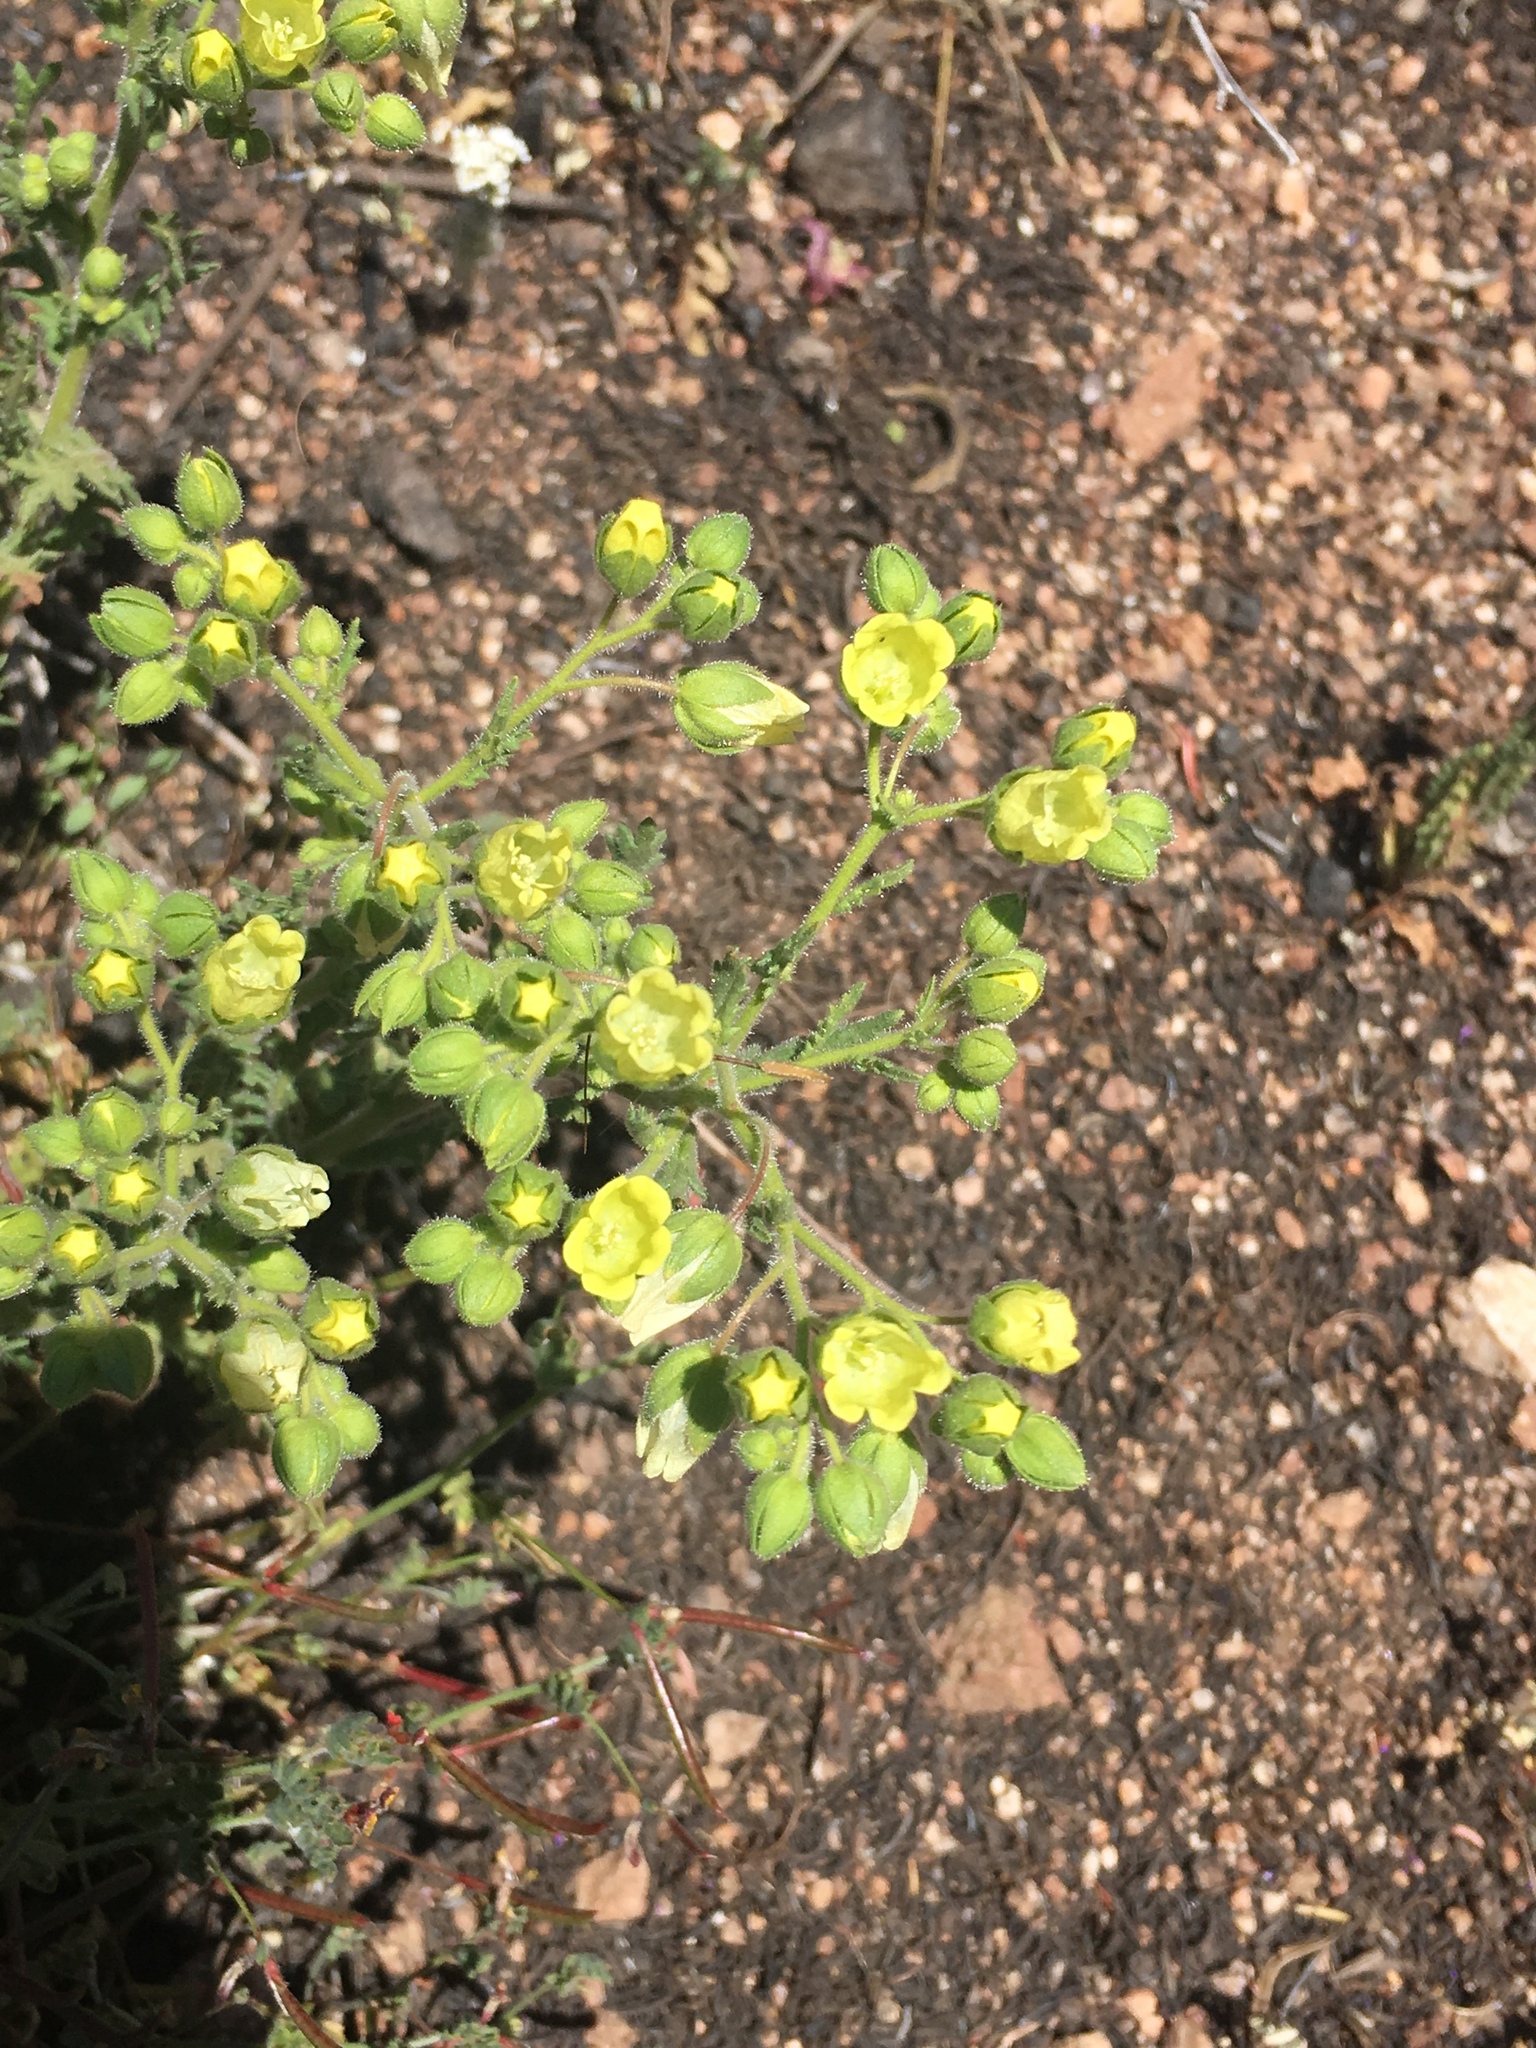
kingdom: Plantae
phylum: Tracheophyta
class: Magnoliopsida
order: Boraginales
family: Hydrophyllaceae
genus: Emmenanthe
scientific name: Emmenanthe penduliflora
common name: Whispering-bells
